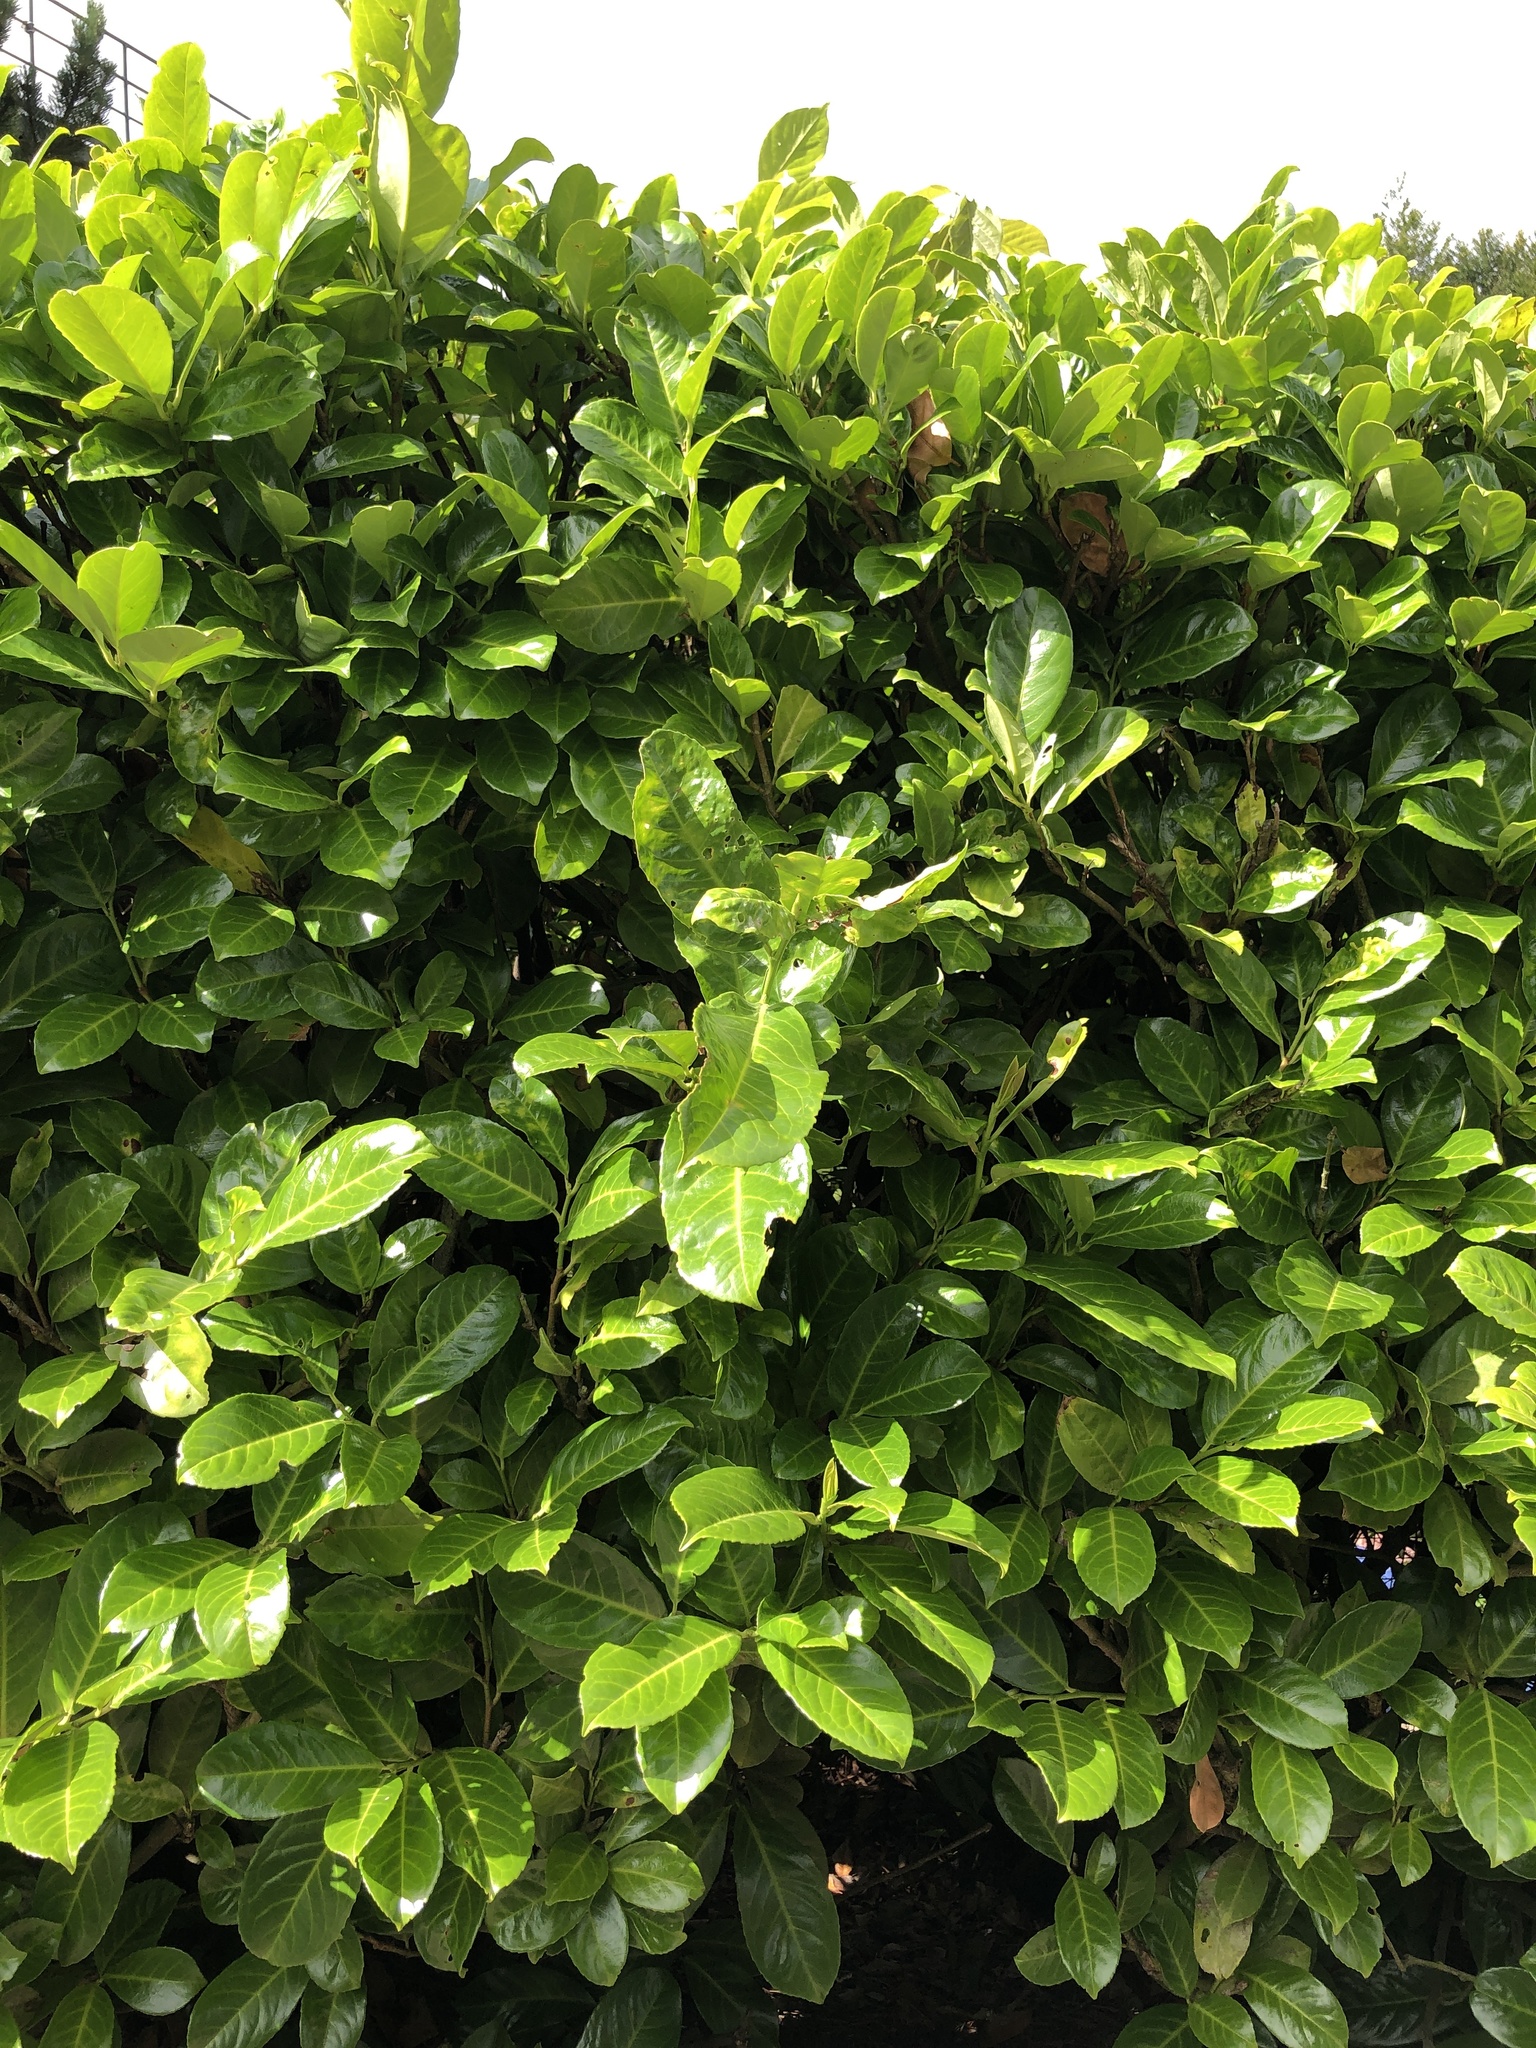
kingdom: Plantae
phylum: Tracheophyta
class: Magnoliopsida
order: Rosales
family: Rosaceae
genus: Prunus
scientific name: Prunus laurocerasus
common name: Cherry laurel
